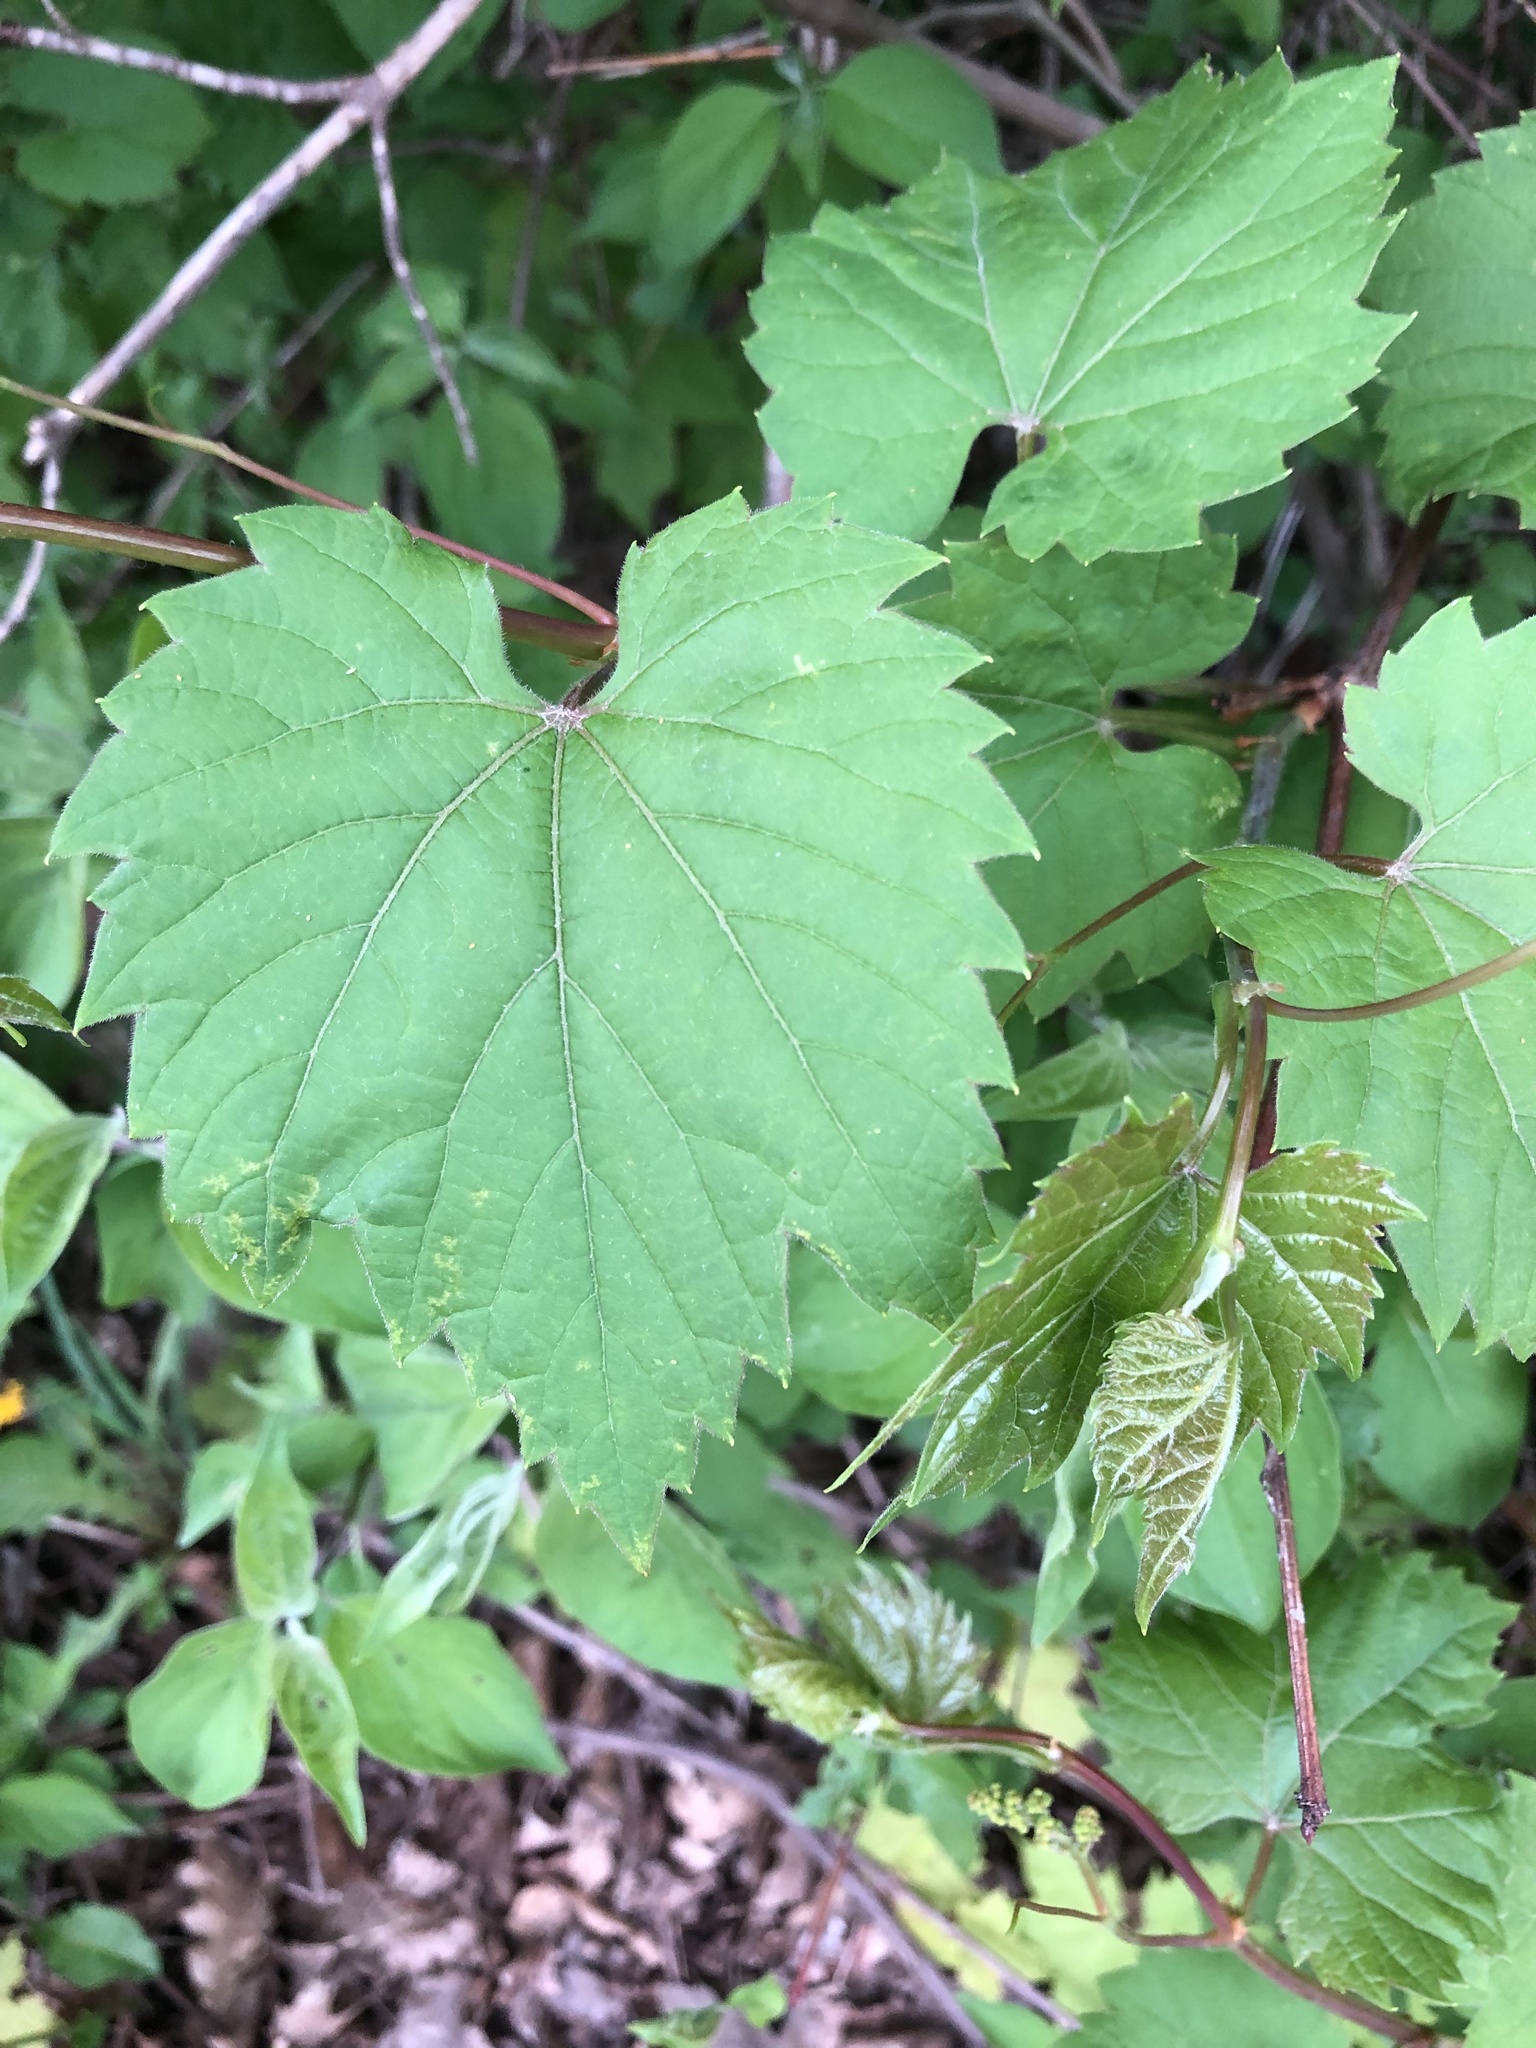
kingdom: Plantae
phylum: Tracheophyta
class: Magnoliopsida
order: Vitales
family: Vitaceae
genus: Vitis
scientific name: Vitis riparia
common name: Frost grape
